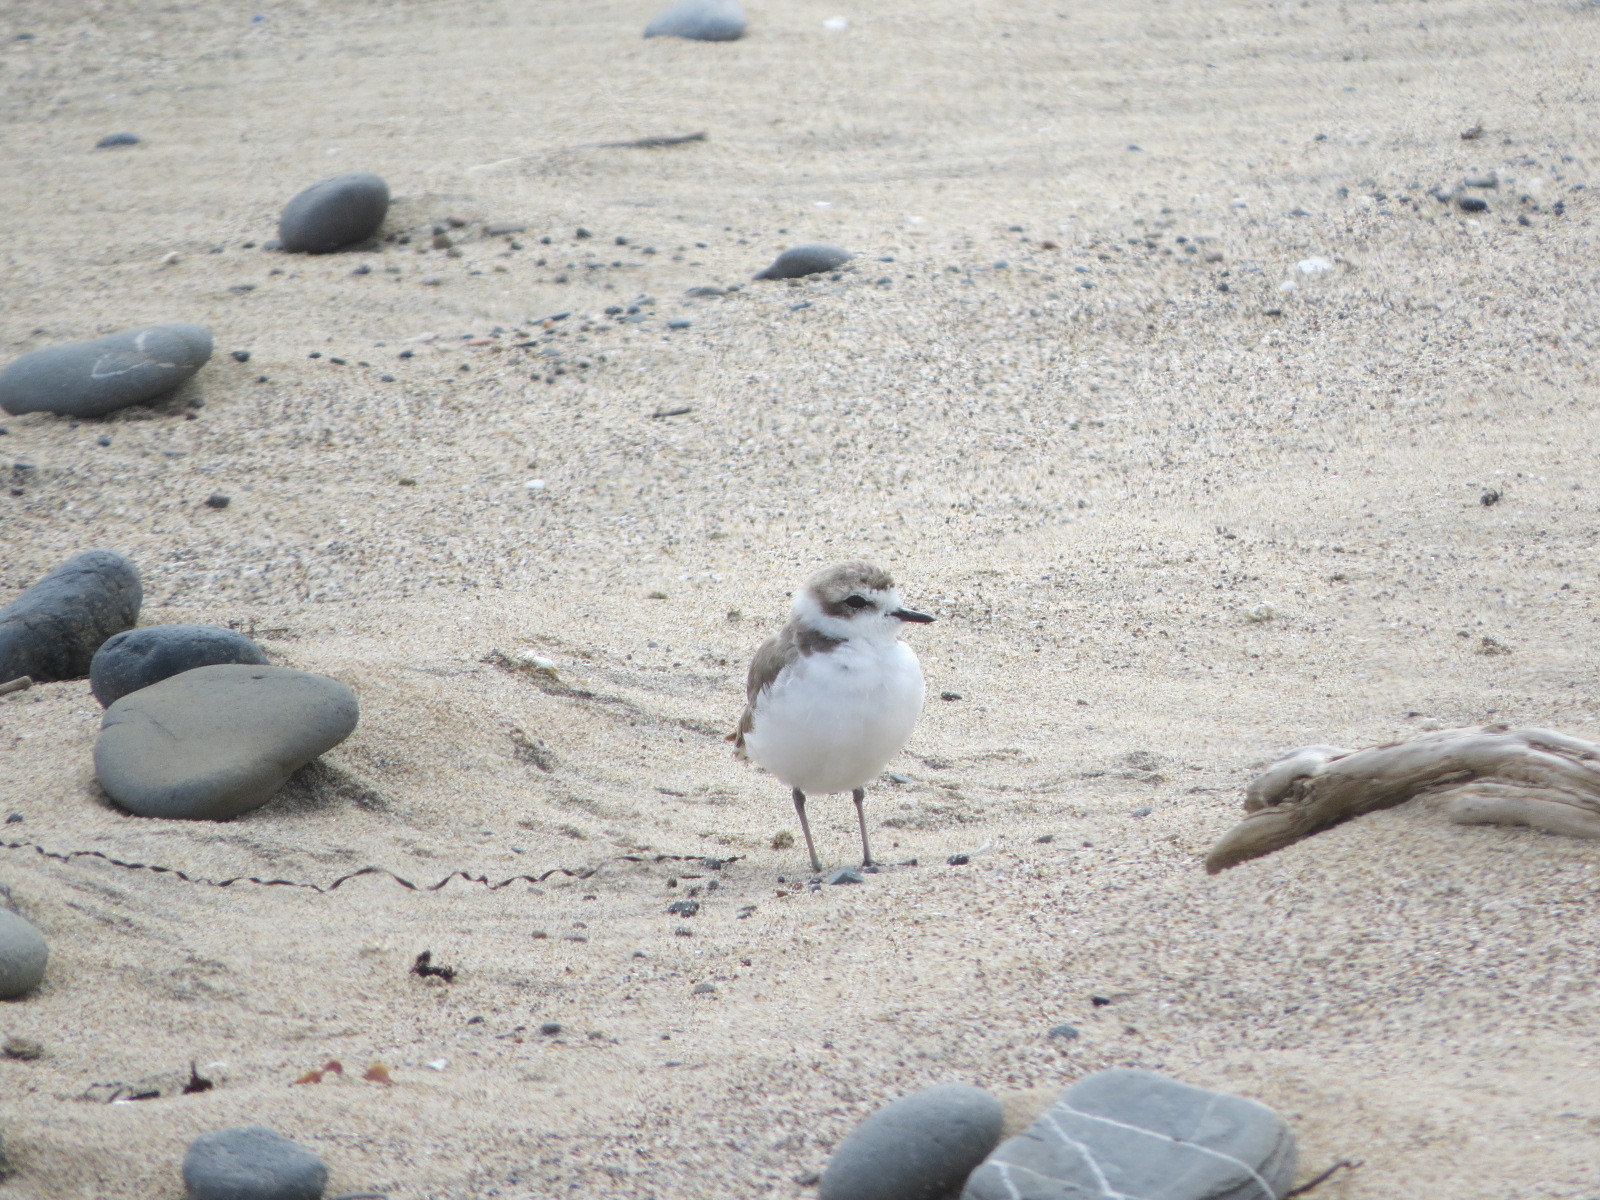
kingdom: Animalia
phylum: Chordata
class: Aves
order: Charadriiformes
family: Charadriidae
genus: Anarhynchus
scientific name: Anarhynchus
